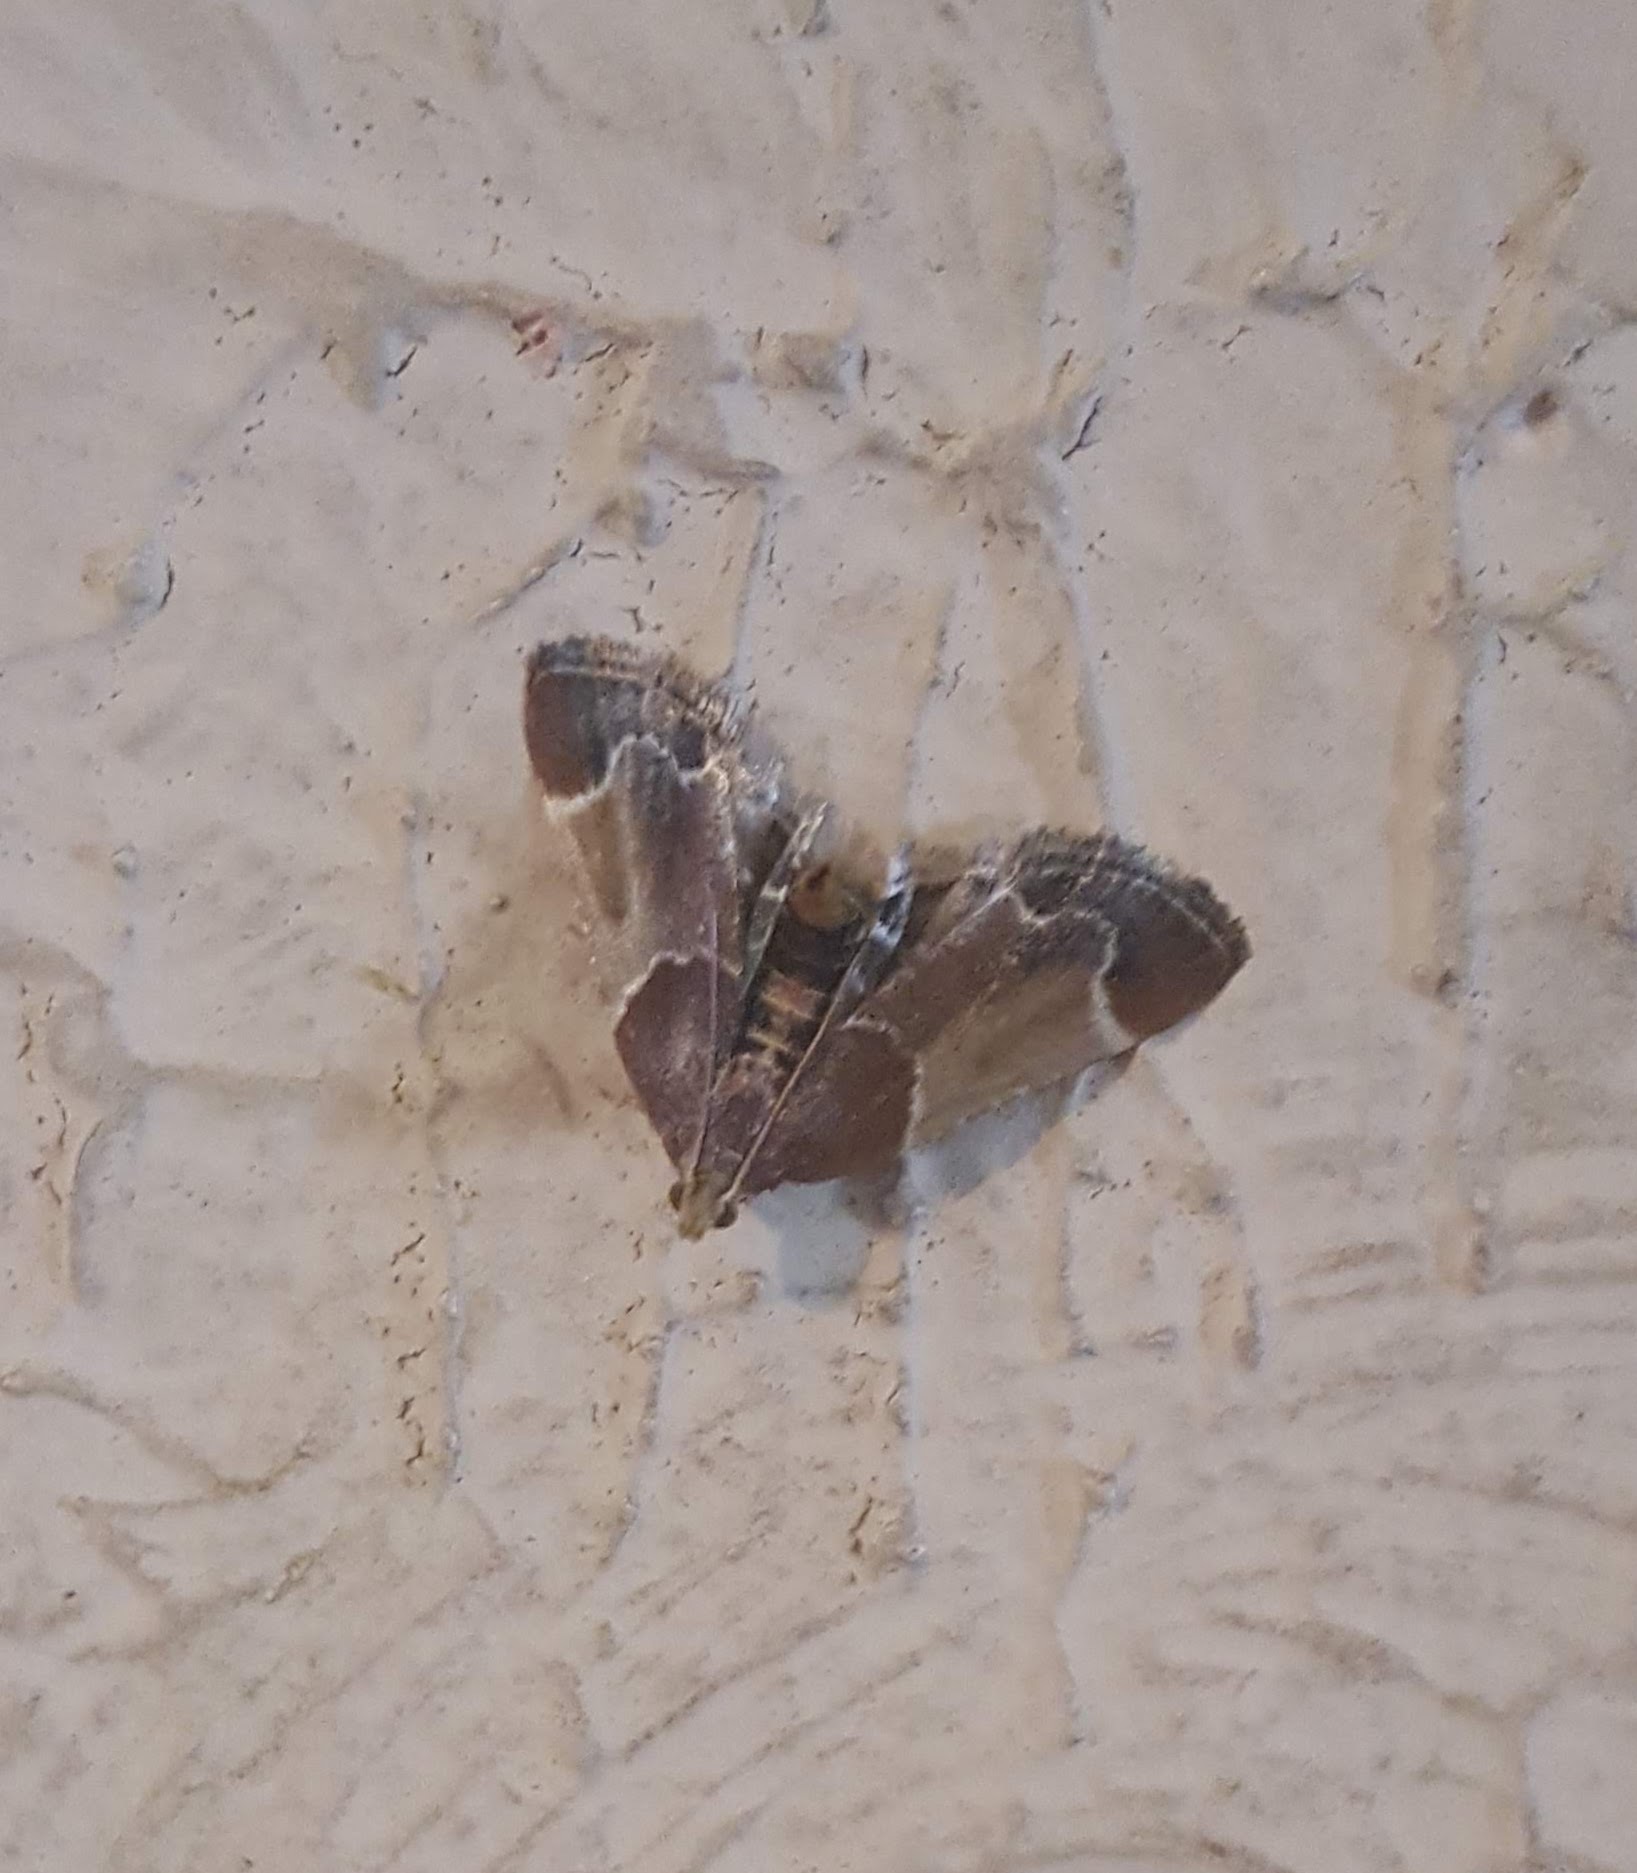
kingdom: Animalia
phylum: Arthropoda
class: Insecta
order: Lepidoptera
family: Pyralidae
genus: Pyralis
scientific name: Pyralis farinalis
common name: Meal moth
